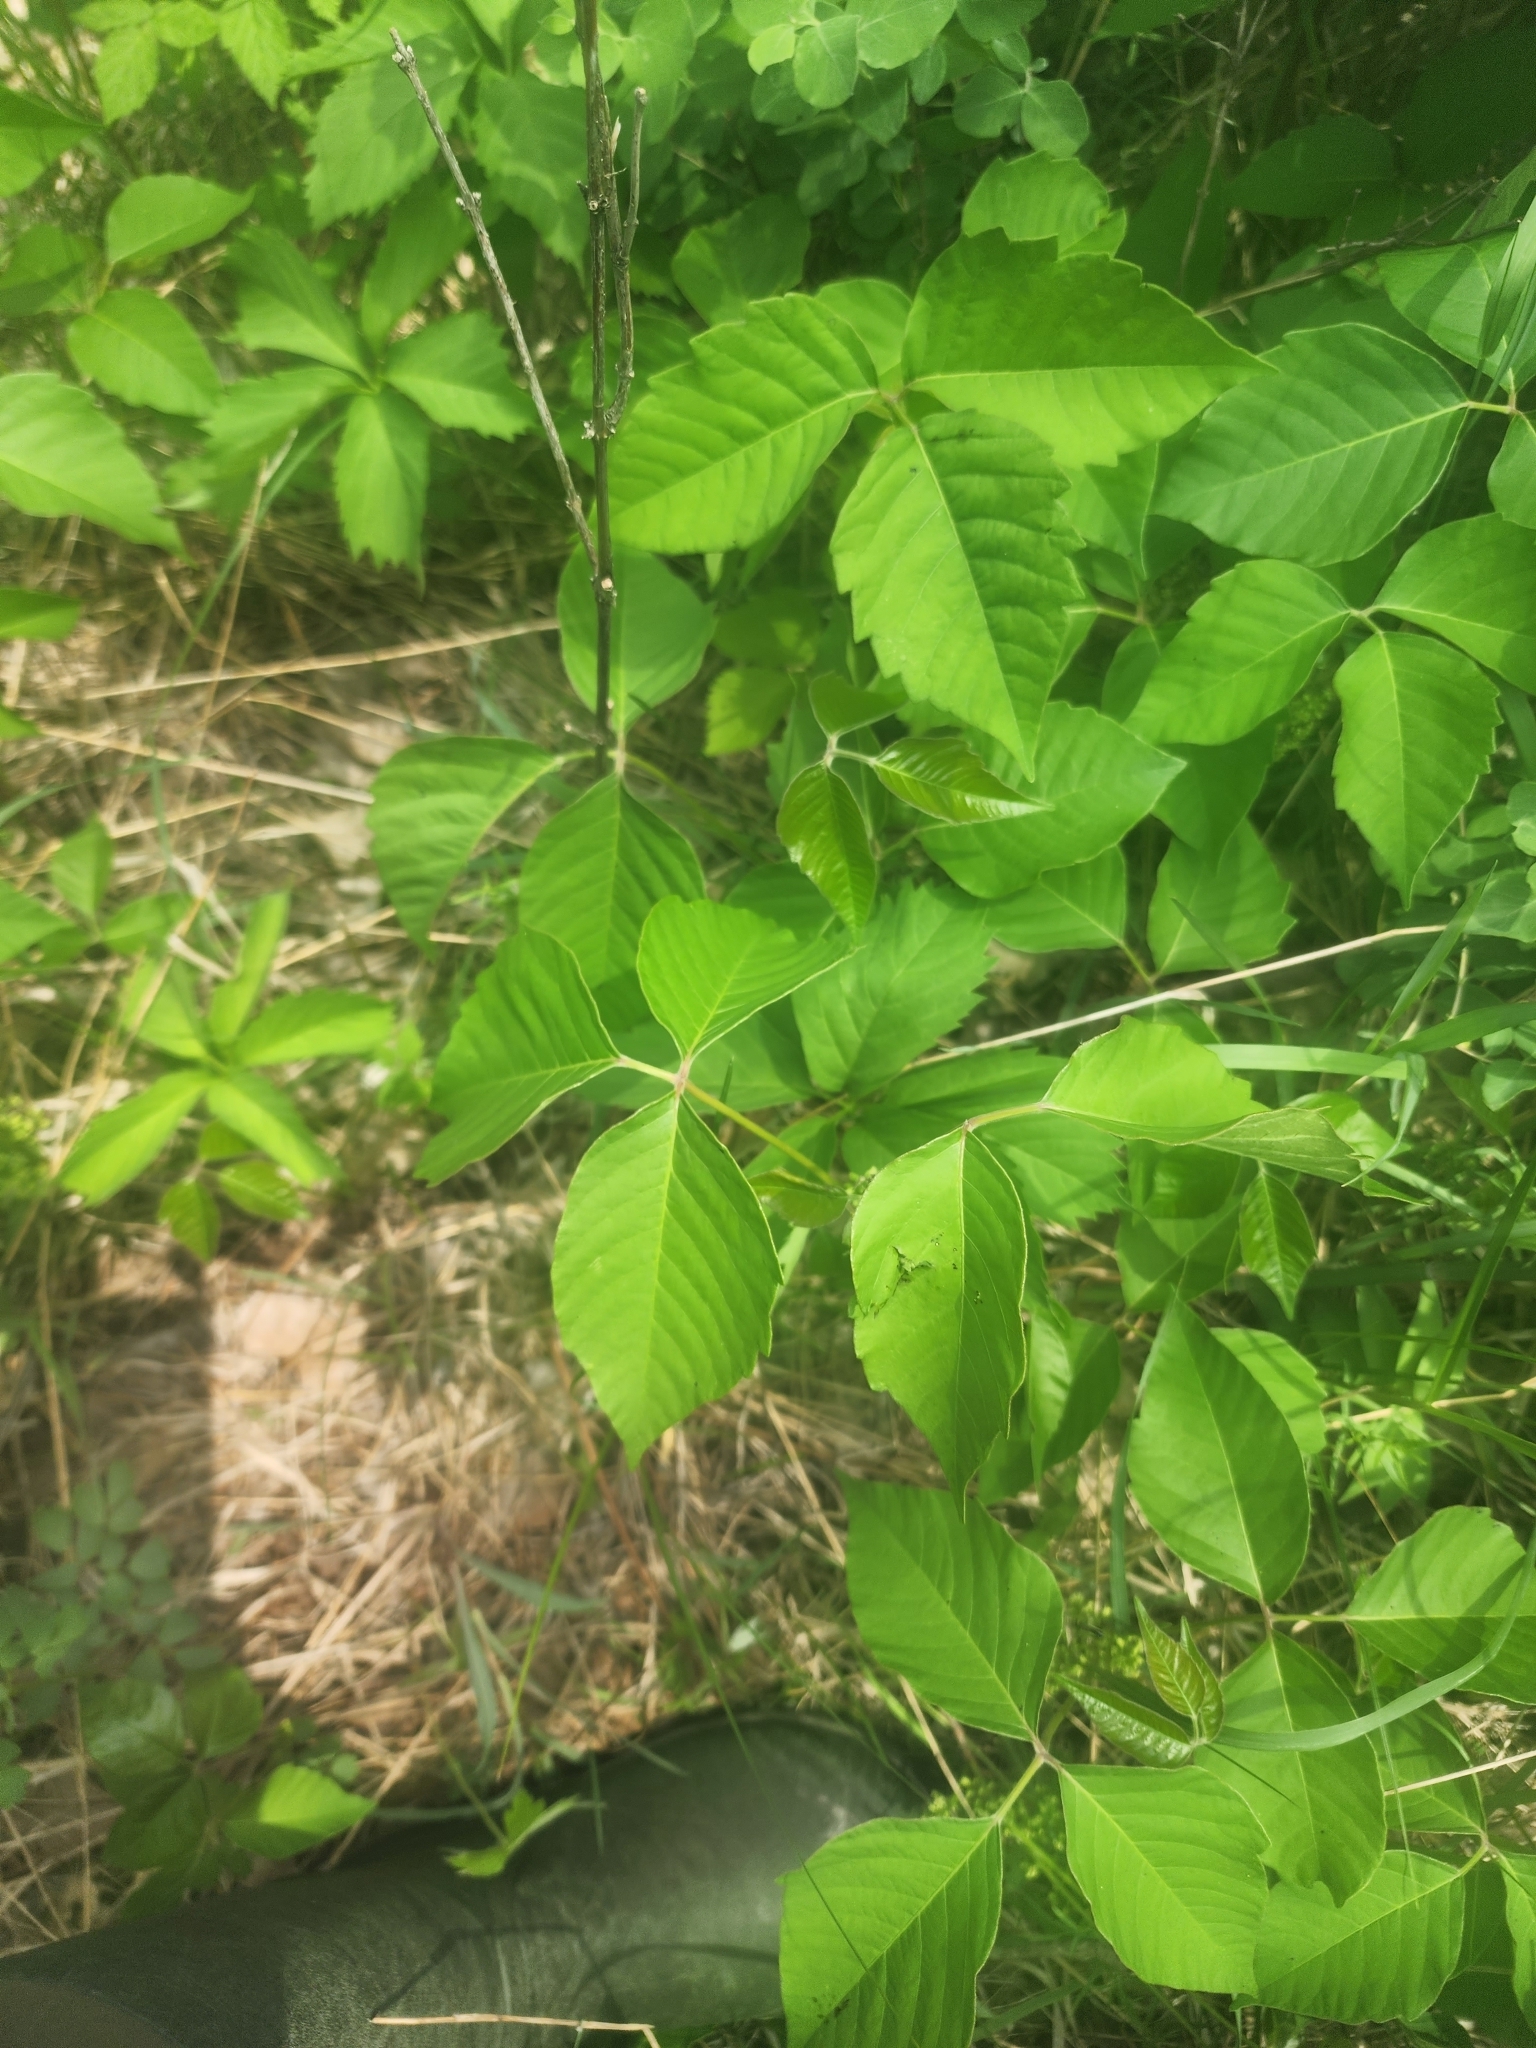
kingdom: Plantae
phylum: Tracheophyta
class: Magnoliopsida
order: Sapindales
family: Anacardiaceae
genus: Toxicodendron
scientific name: Toxicodendron rydbergii
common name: Rydberg's poison-ivy
